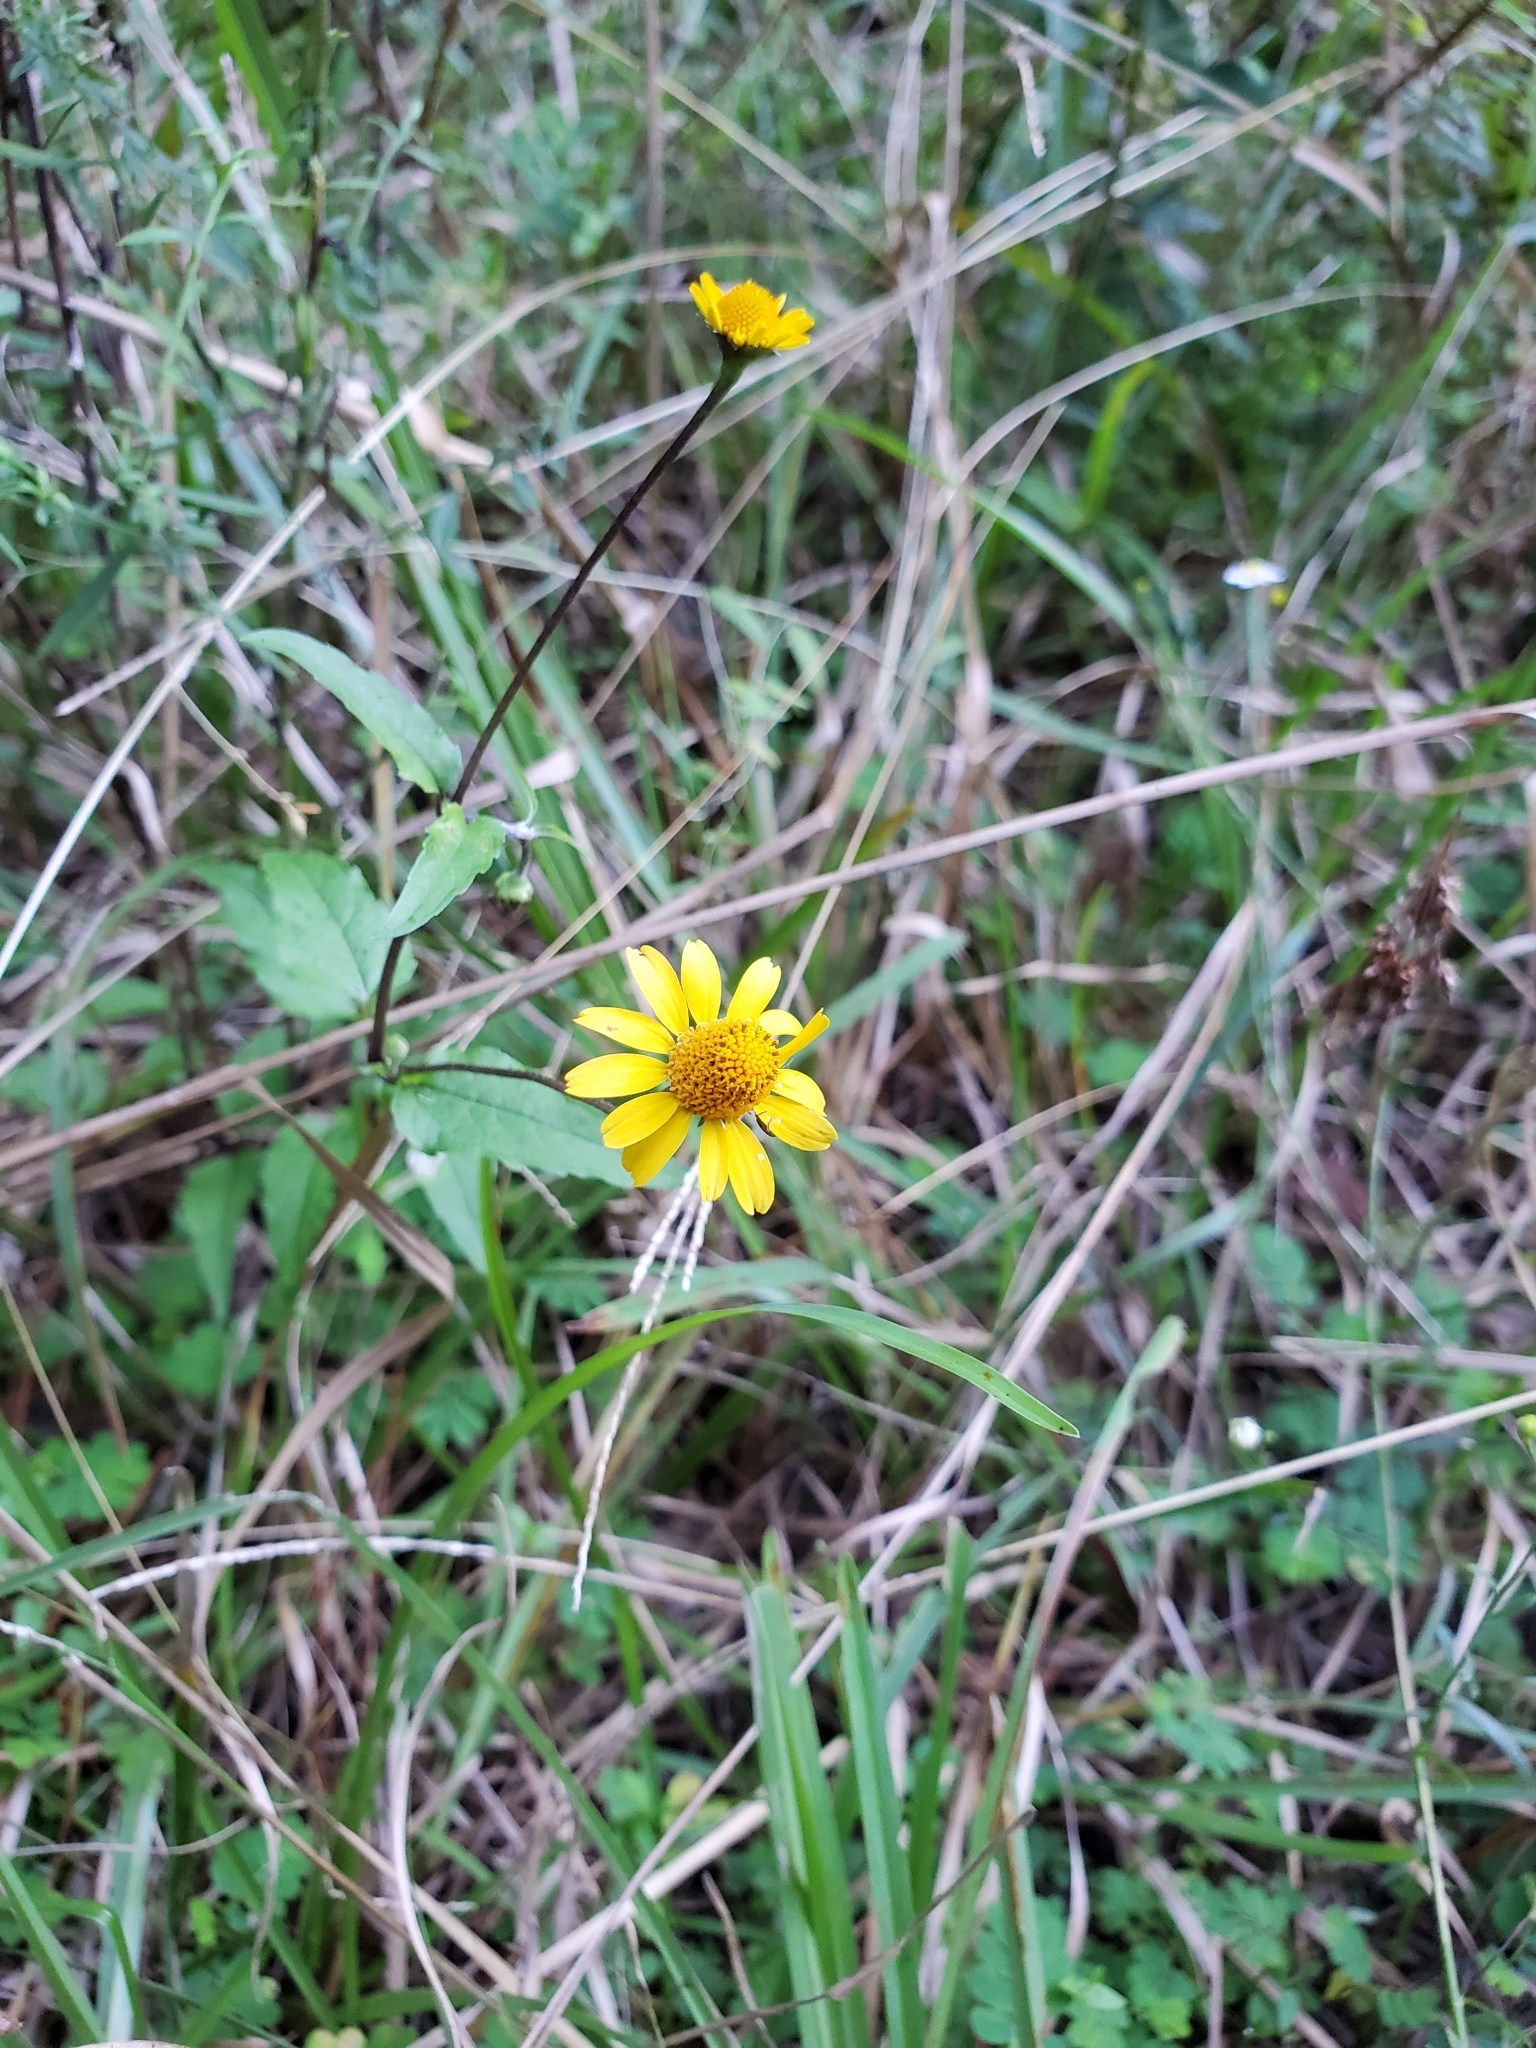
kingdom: Plantae
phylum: Tracheophyta
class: Magnoliopsida
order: Asterales
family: Asteraceae
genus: Acmella
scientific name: Acmella repens
